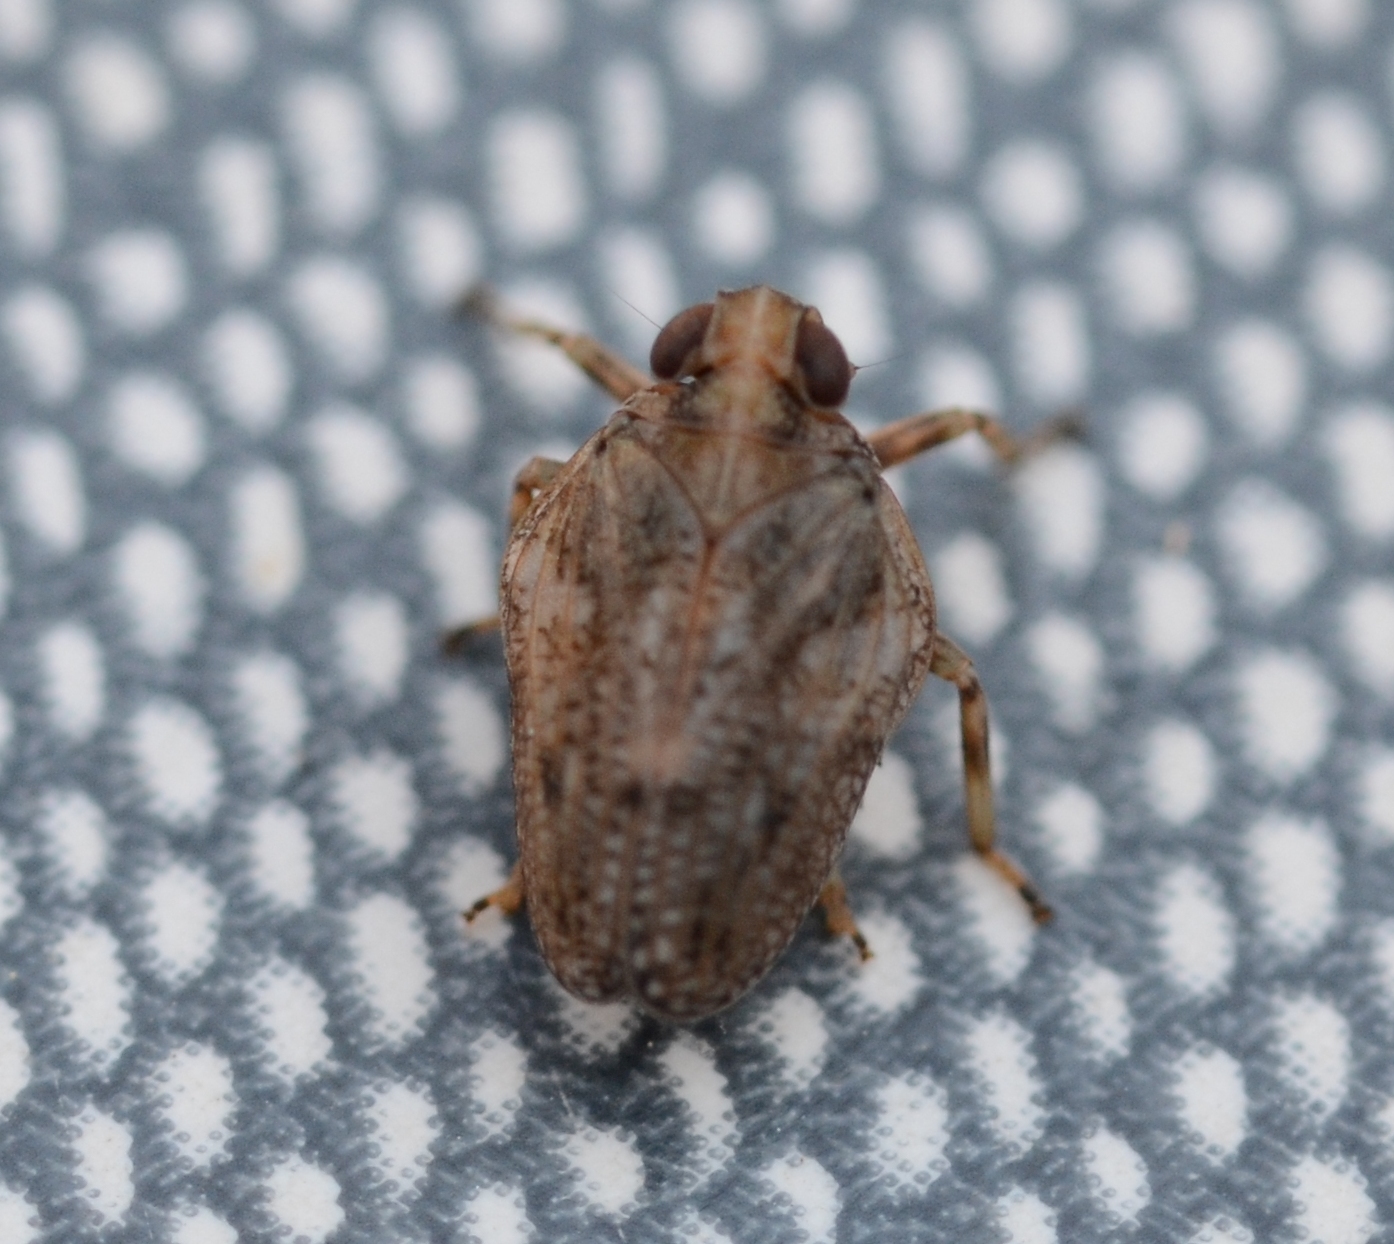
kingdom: Animalia
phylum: Arthropoda
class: Insecta
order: Hemiptera
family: Issidae
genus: Issus
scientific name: Issus coleoptratus
